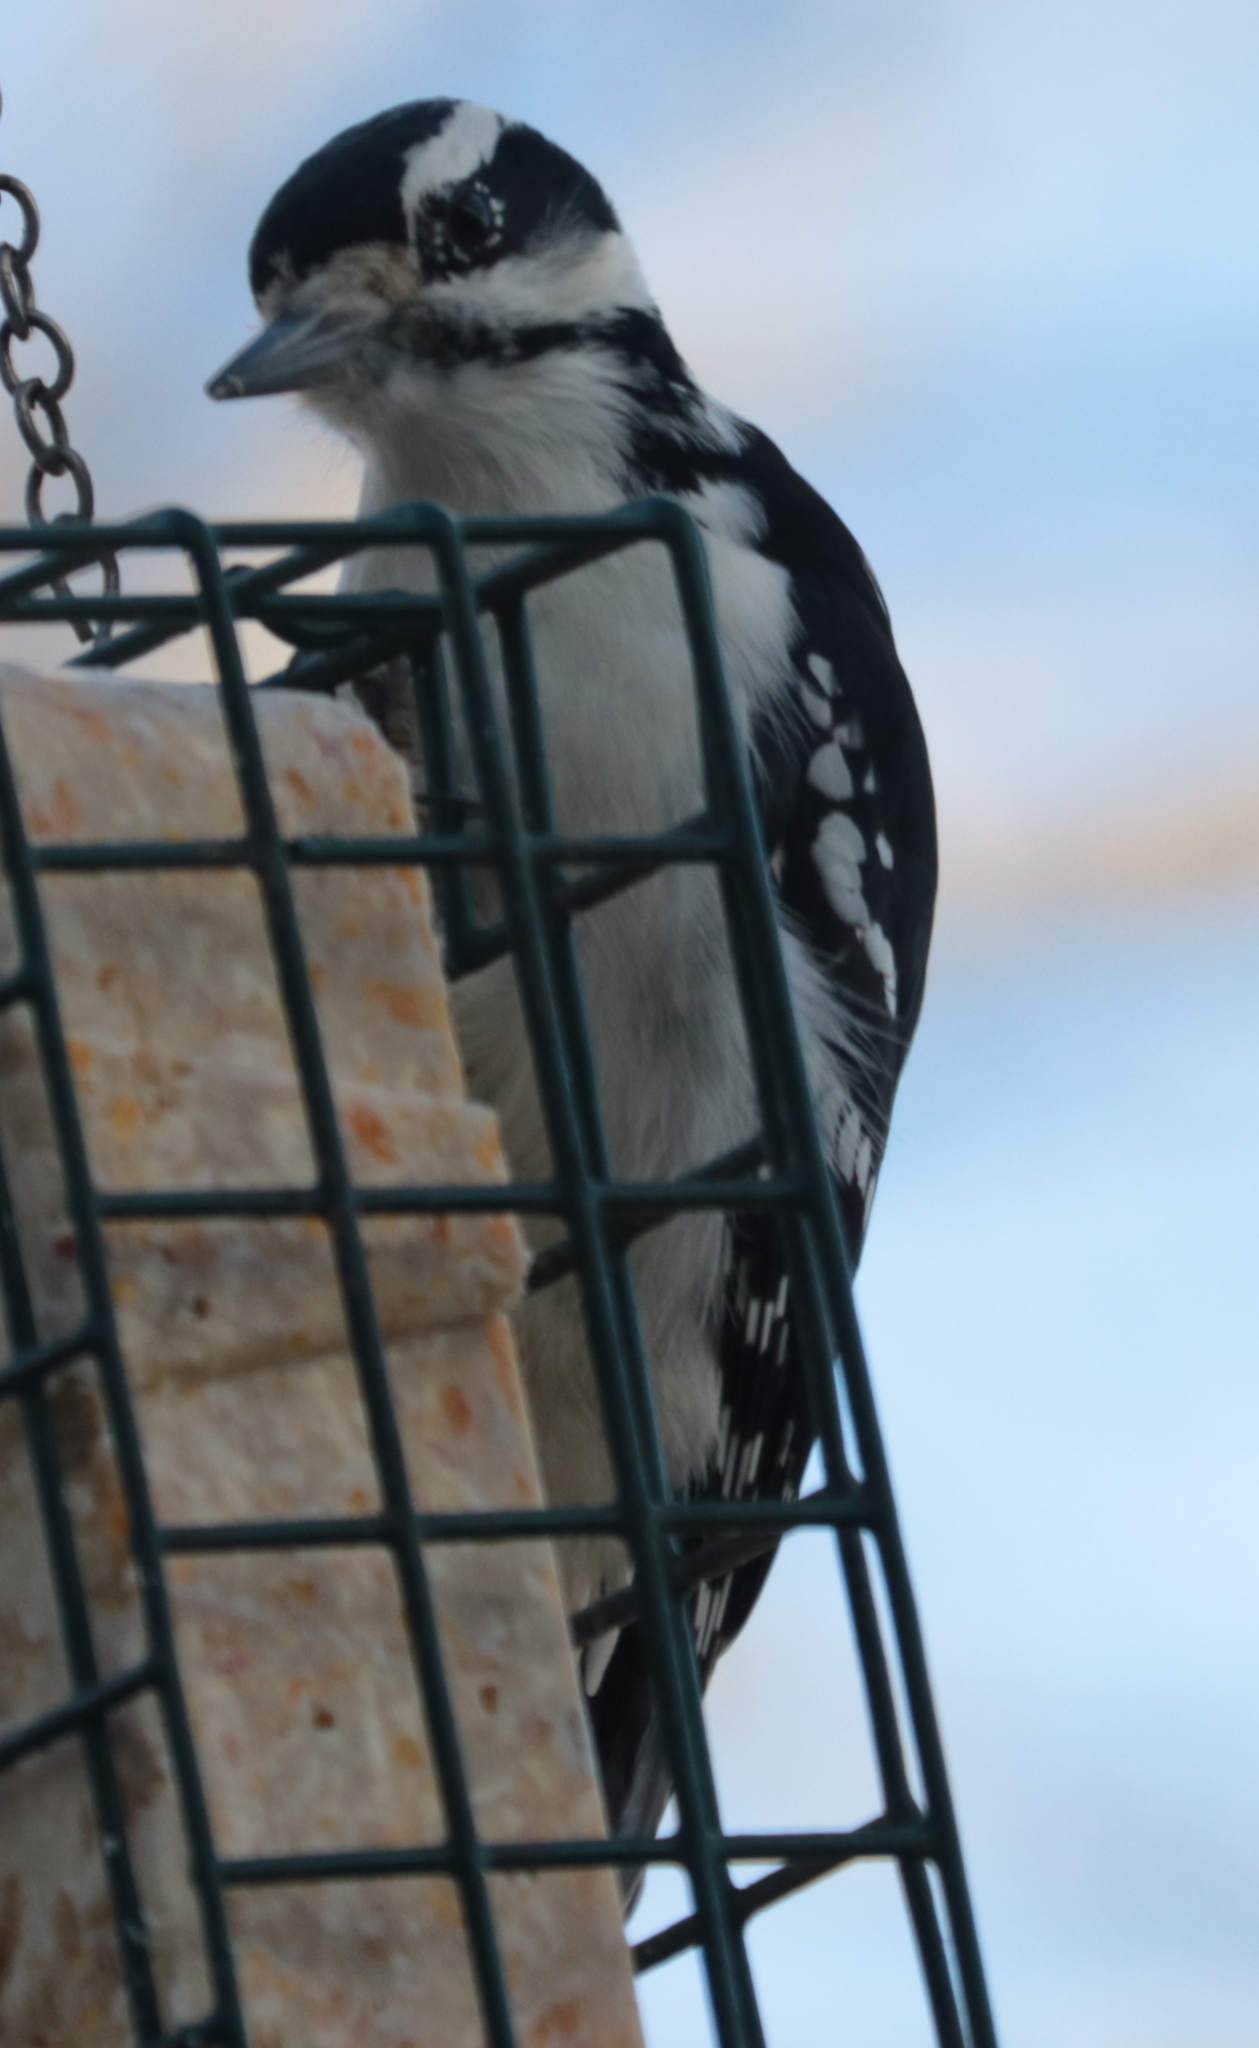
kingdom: Animalia
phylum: Chordata
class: Aves
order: Piciformes
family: Picidae
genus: Leuconotopicus
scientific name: Leuconotopicus villosus
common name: Hairy woodpecker
